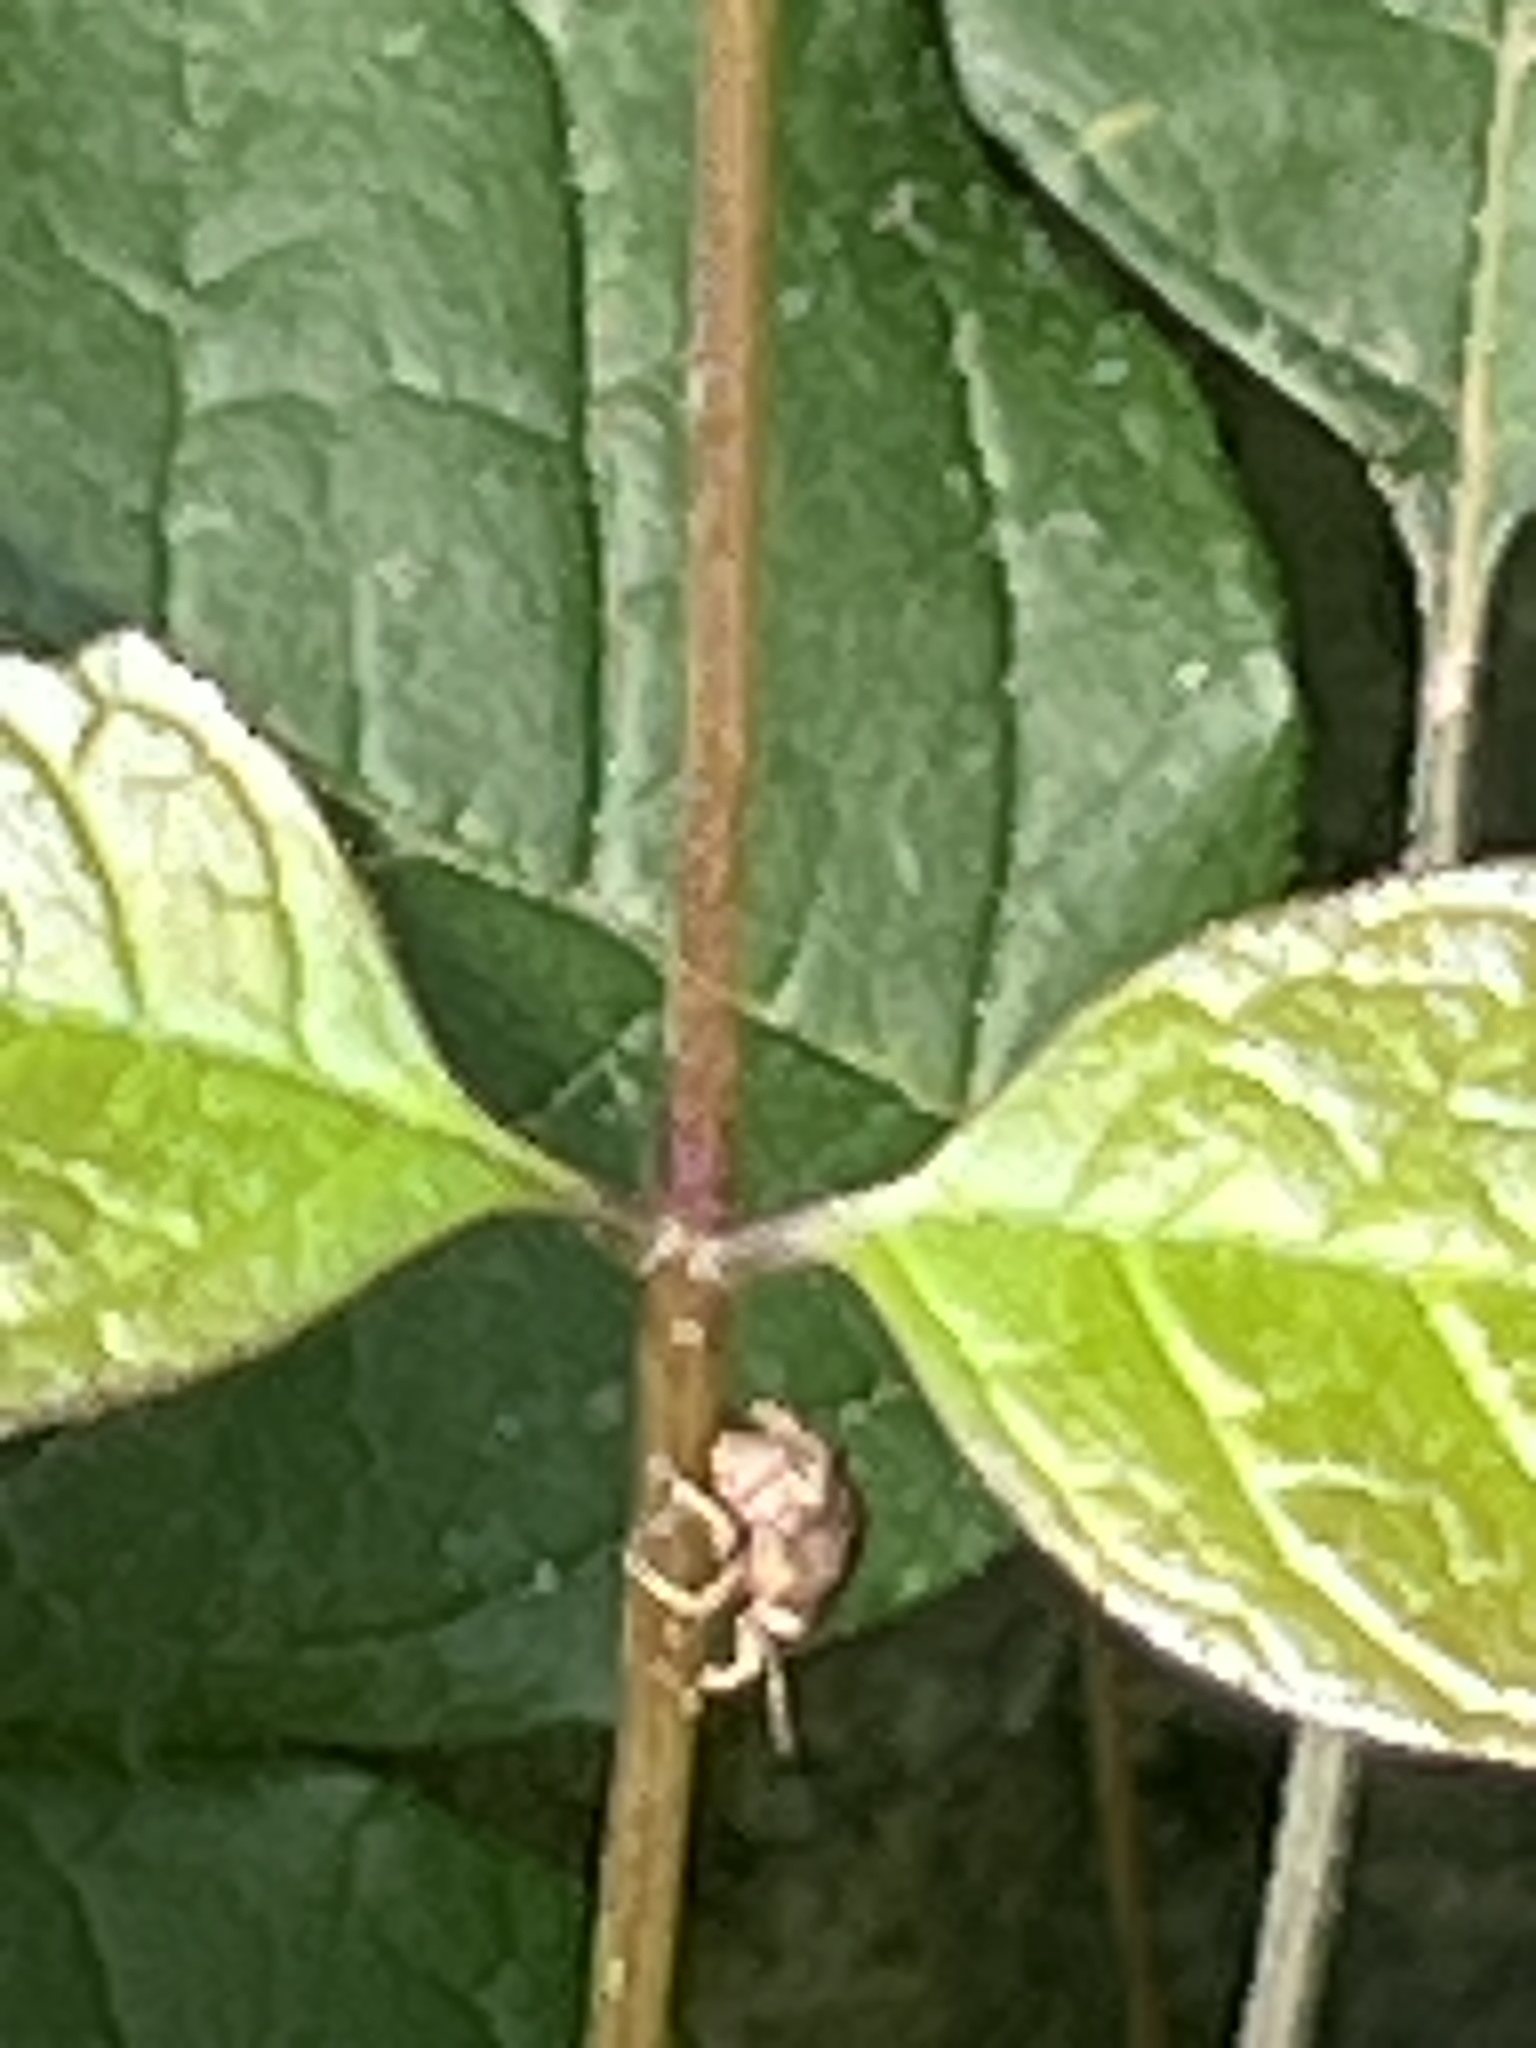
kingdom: Animalia
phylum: Arthropoda
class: Insecta
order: Coleoptera
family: Curculionidae
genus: Pseudocneorhinus
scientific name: Pseudocneorhinus bifasciatus
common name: Two-banded japanese weevil
